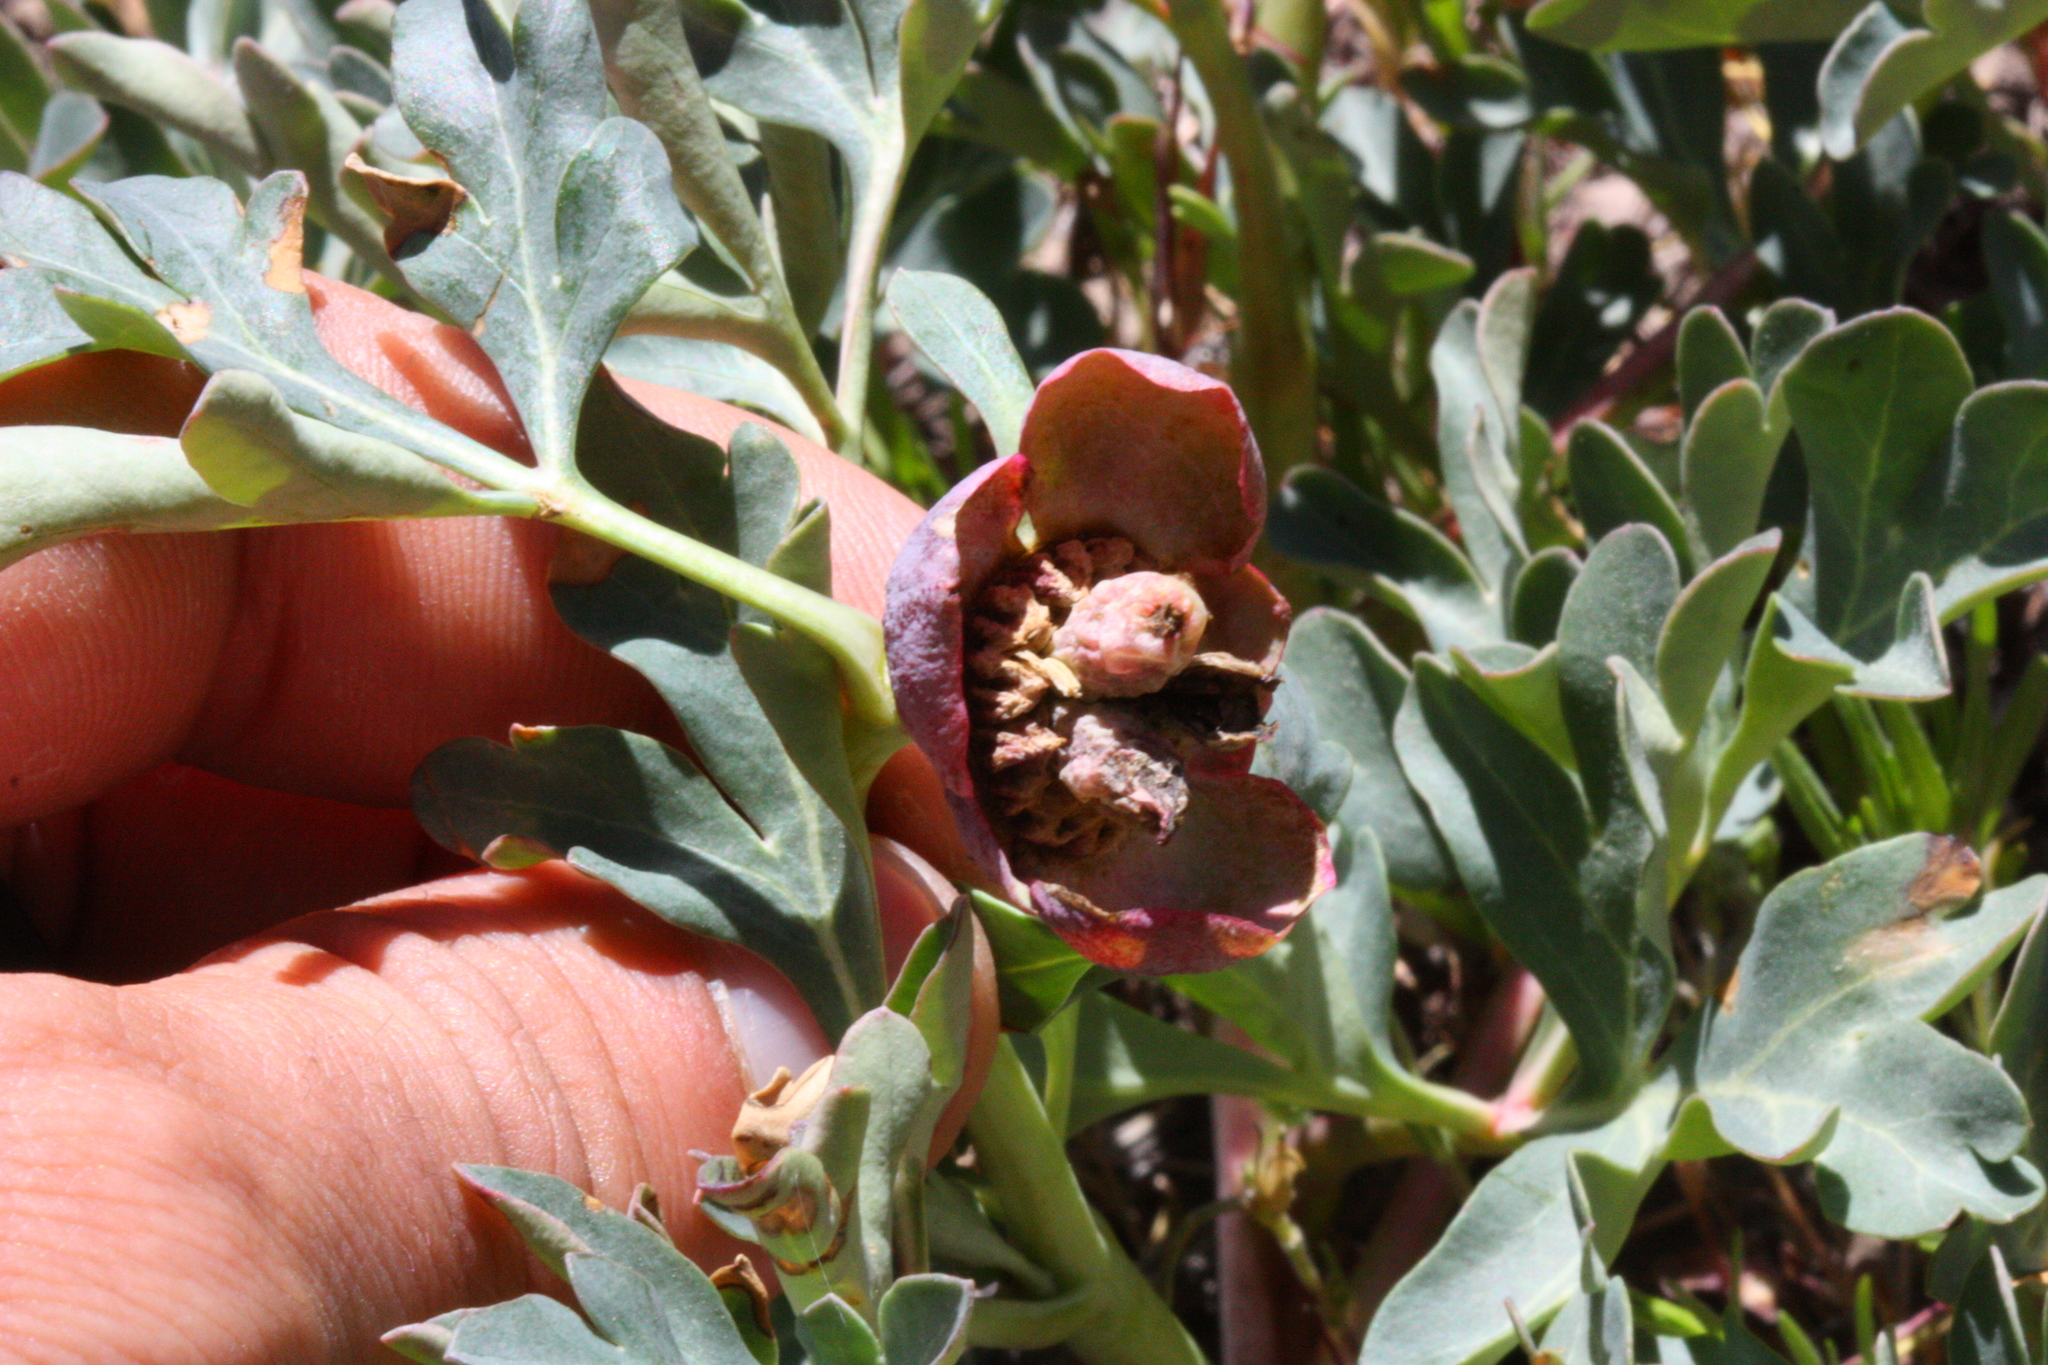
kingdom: Plantae
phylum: Tracheophyta
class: Magnoliopsida
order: Saxifragales
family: Paeoniaceae
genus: Paeonia
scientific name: Paeonia brownii
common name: Brown's peony
